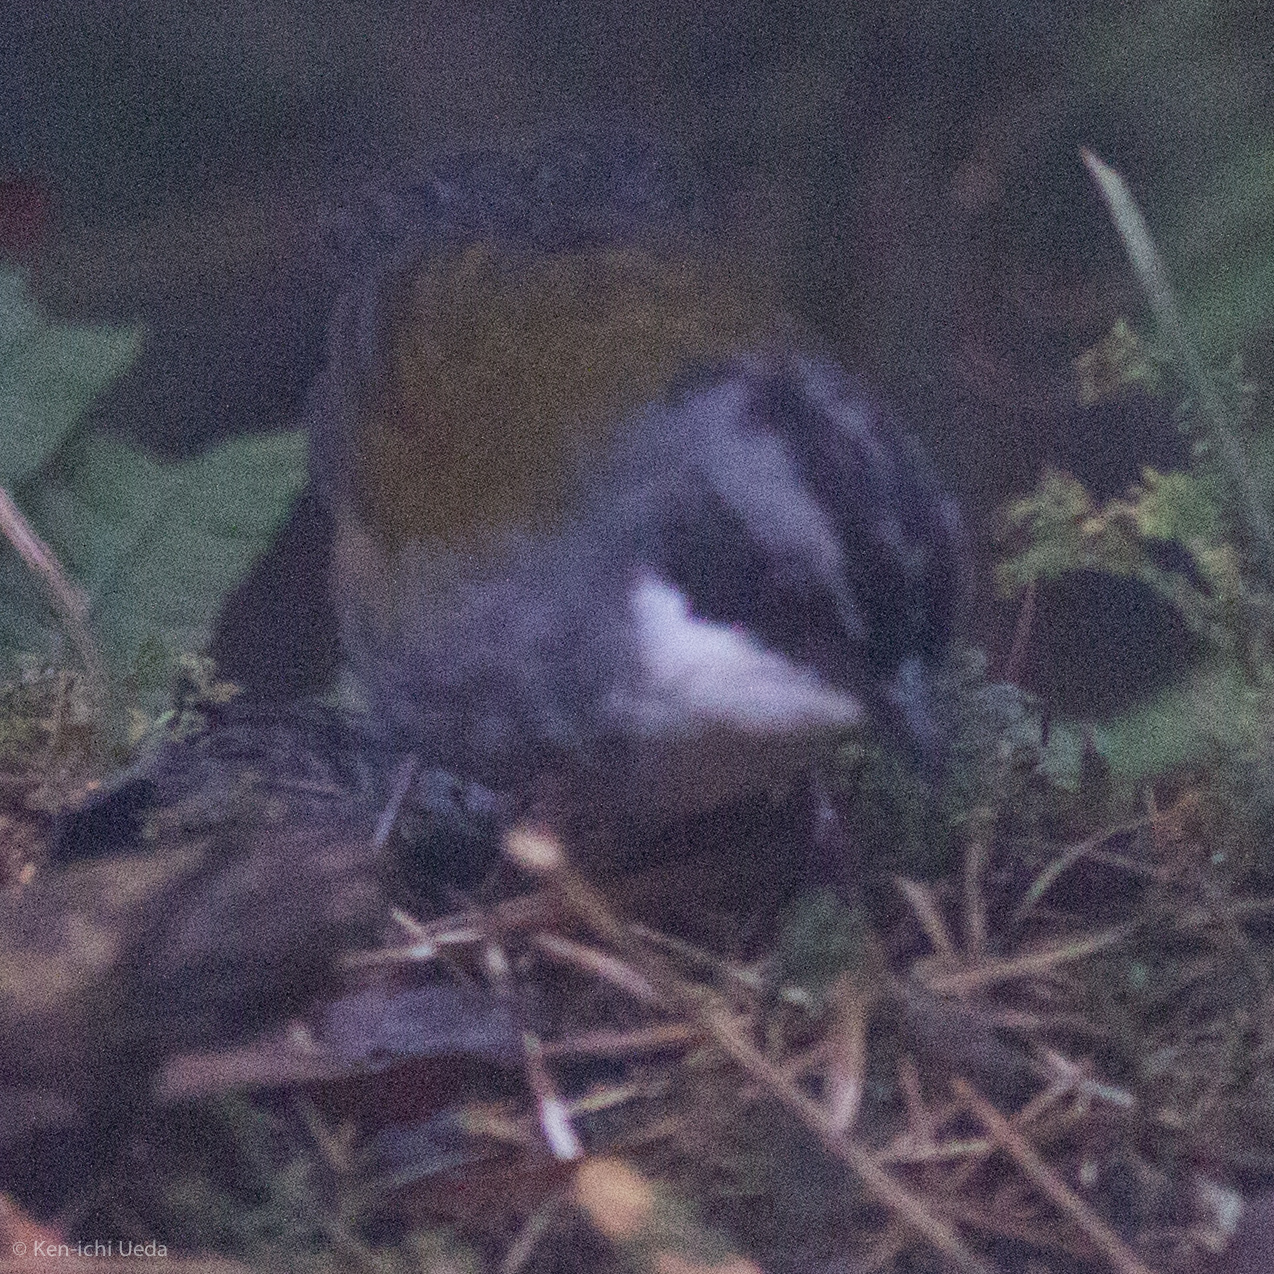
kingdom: Animalia
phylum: Chordata
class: Aves
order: Passeriformes
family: Passerellidae
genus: Arremon
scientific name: Arremon assimilis
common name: Grey-browed brushfinch
